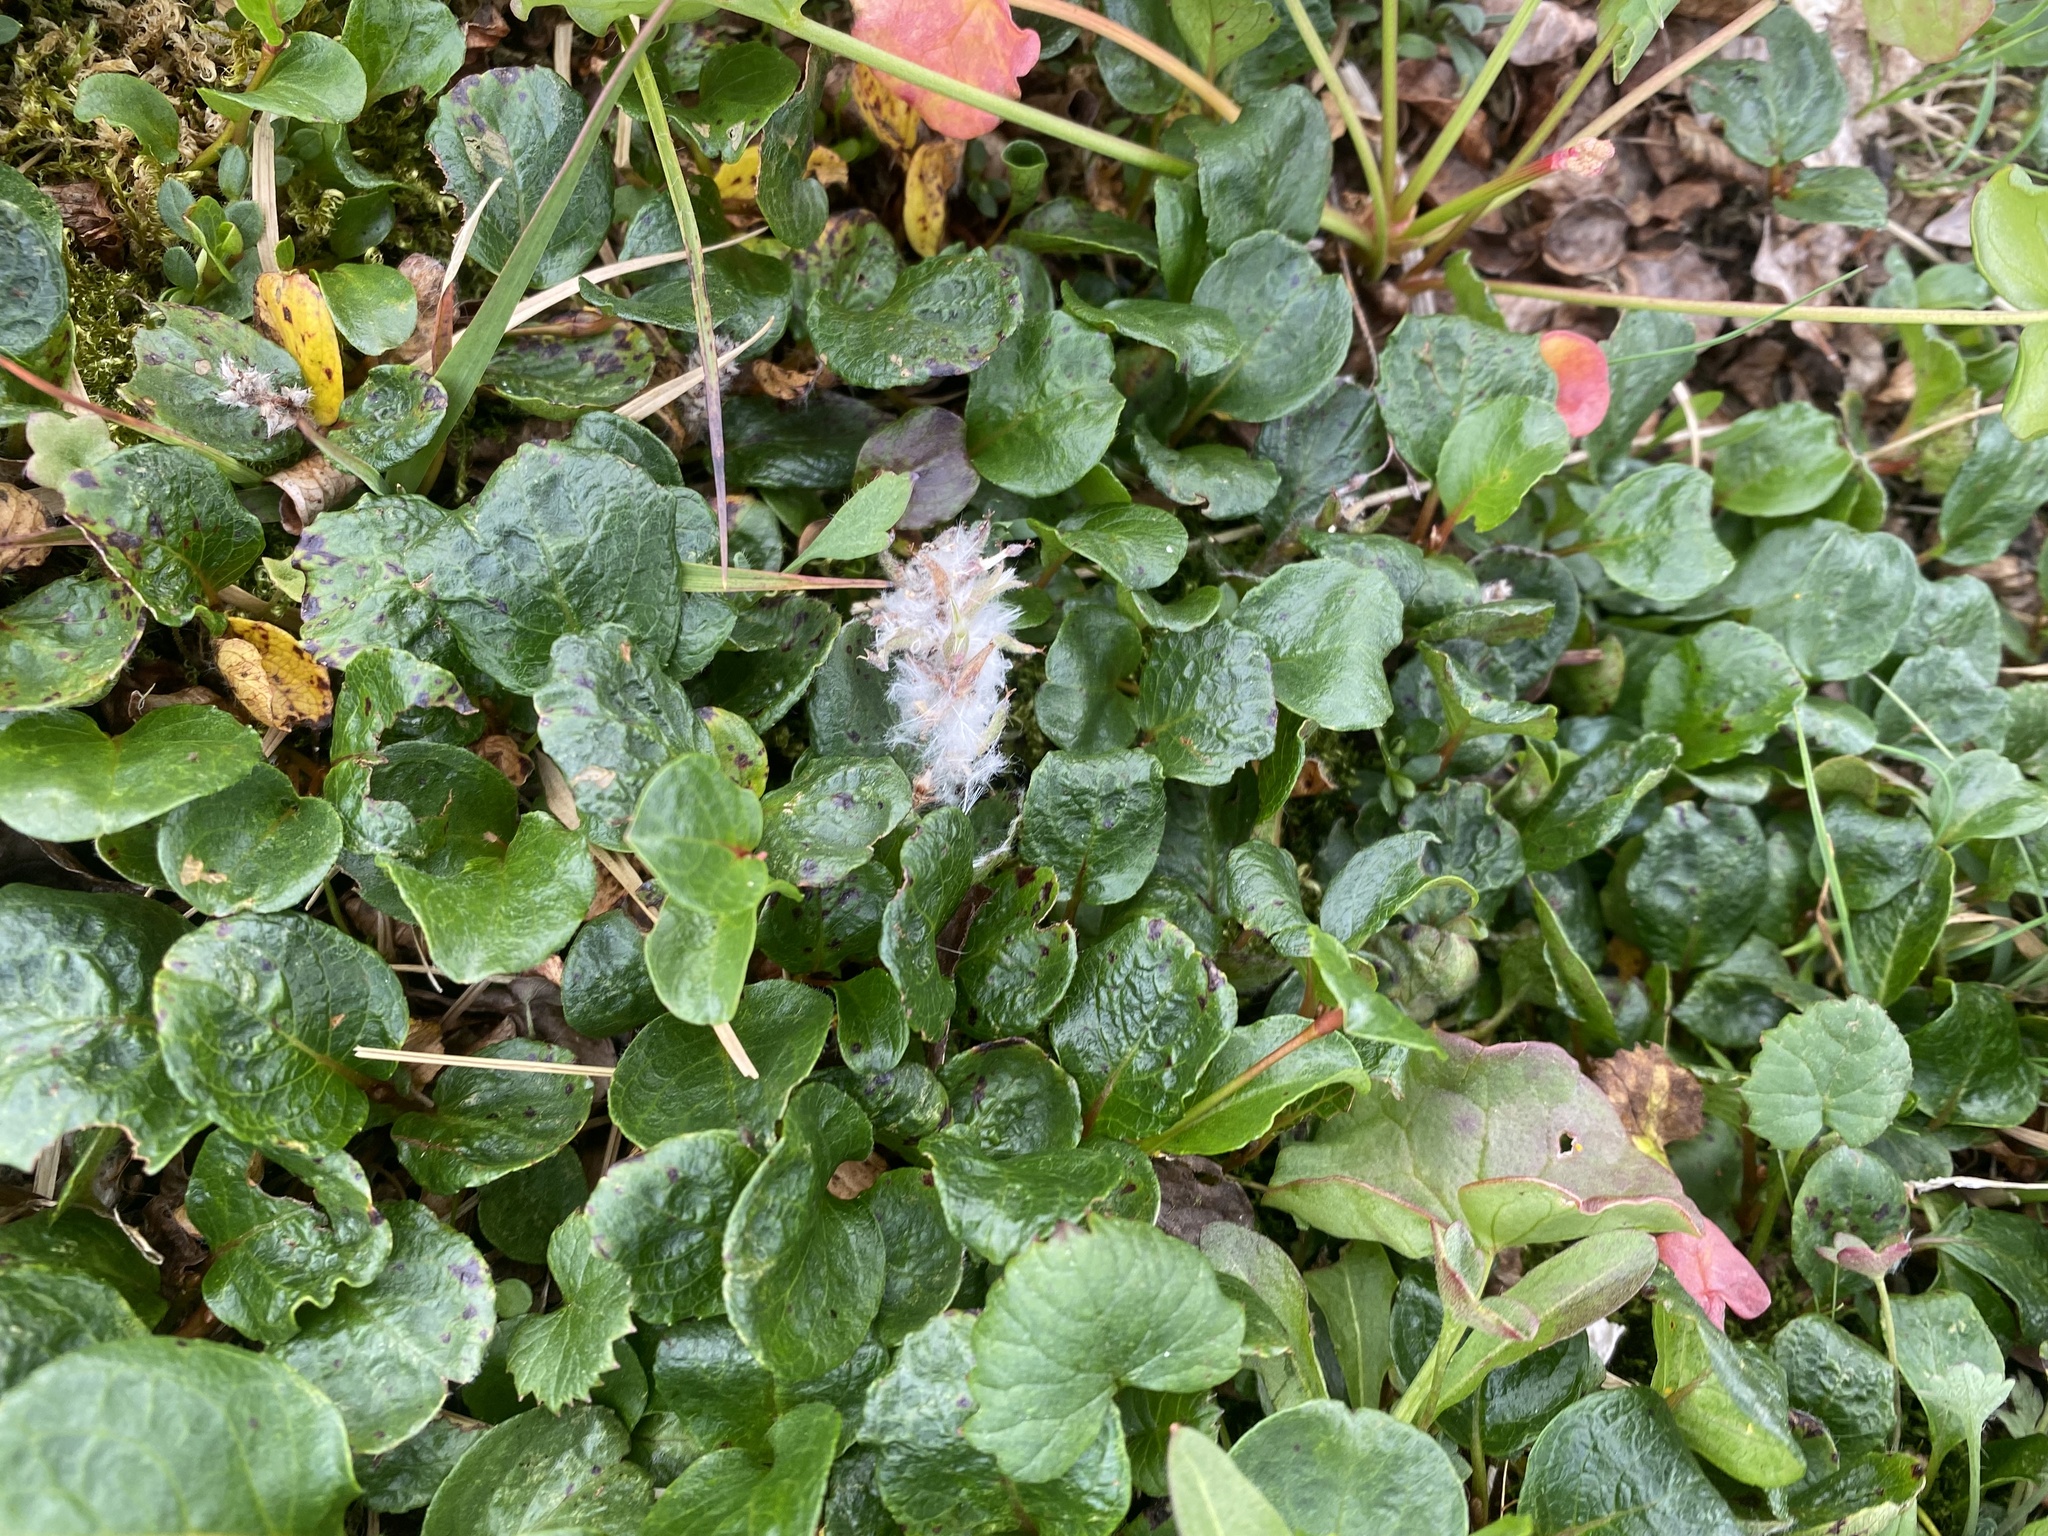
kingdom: Plantae
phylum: Tracheophyta
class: Magnoliopsida
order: Malpighiales
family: Salicaceae
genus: Salix
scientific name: Salix polaris
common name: Polar willow
